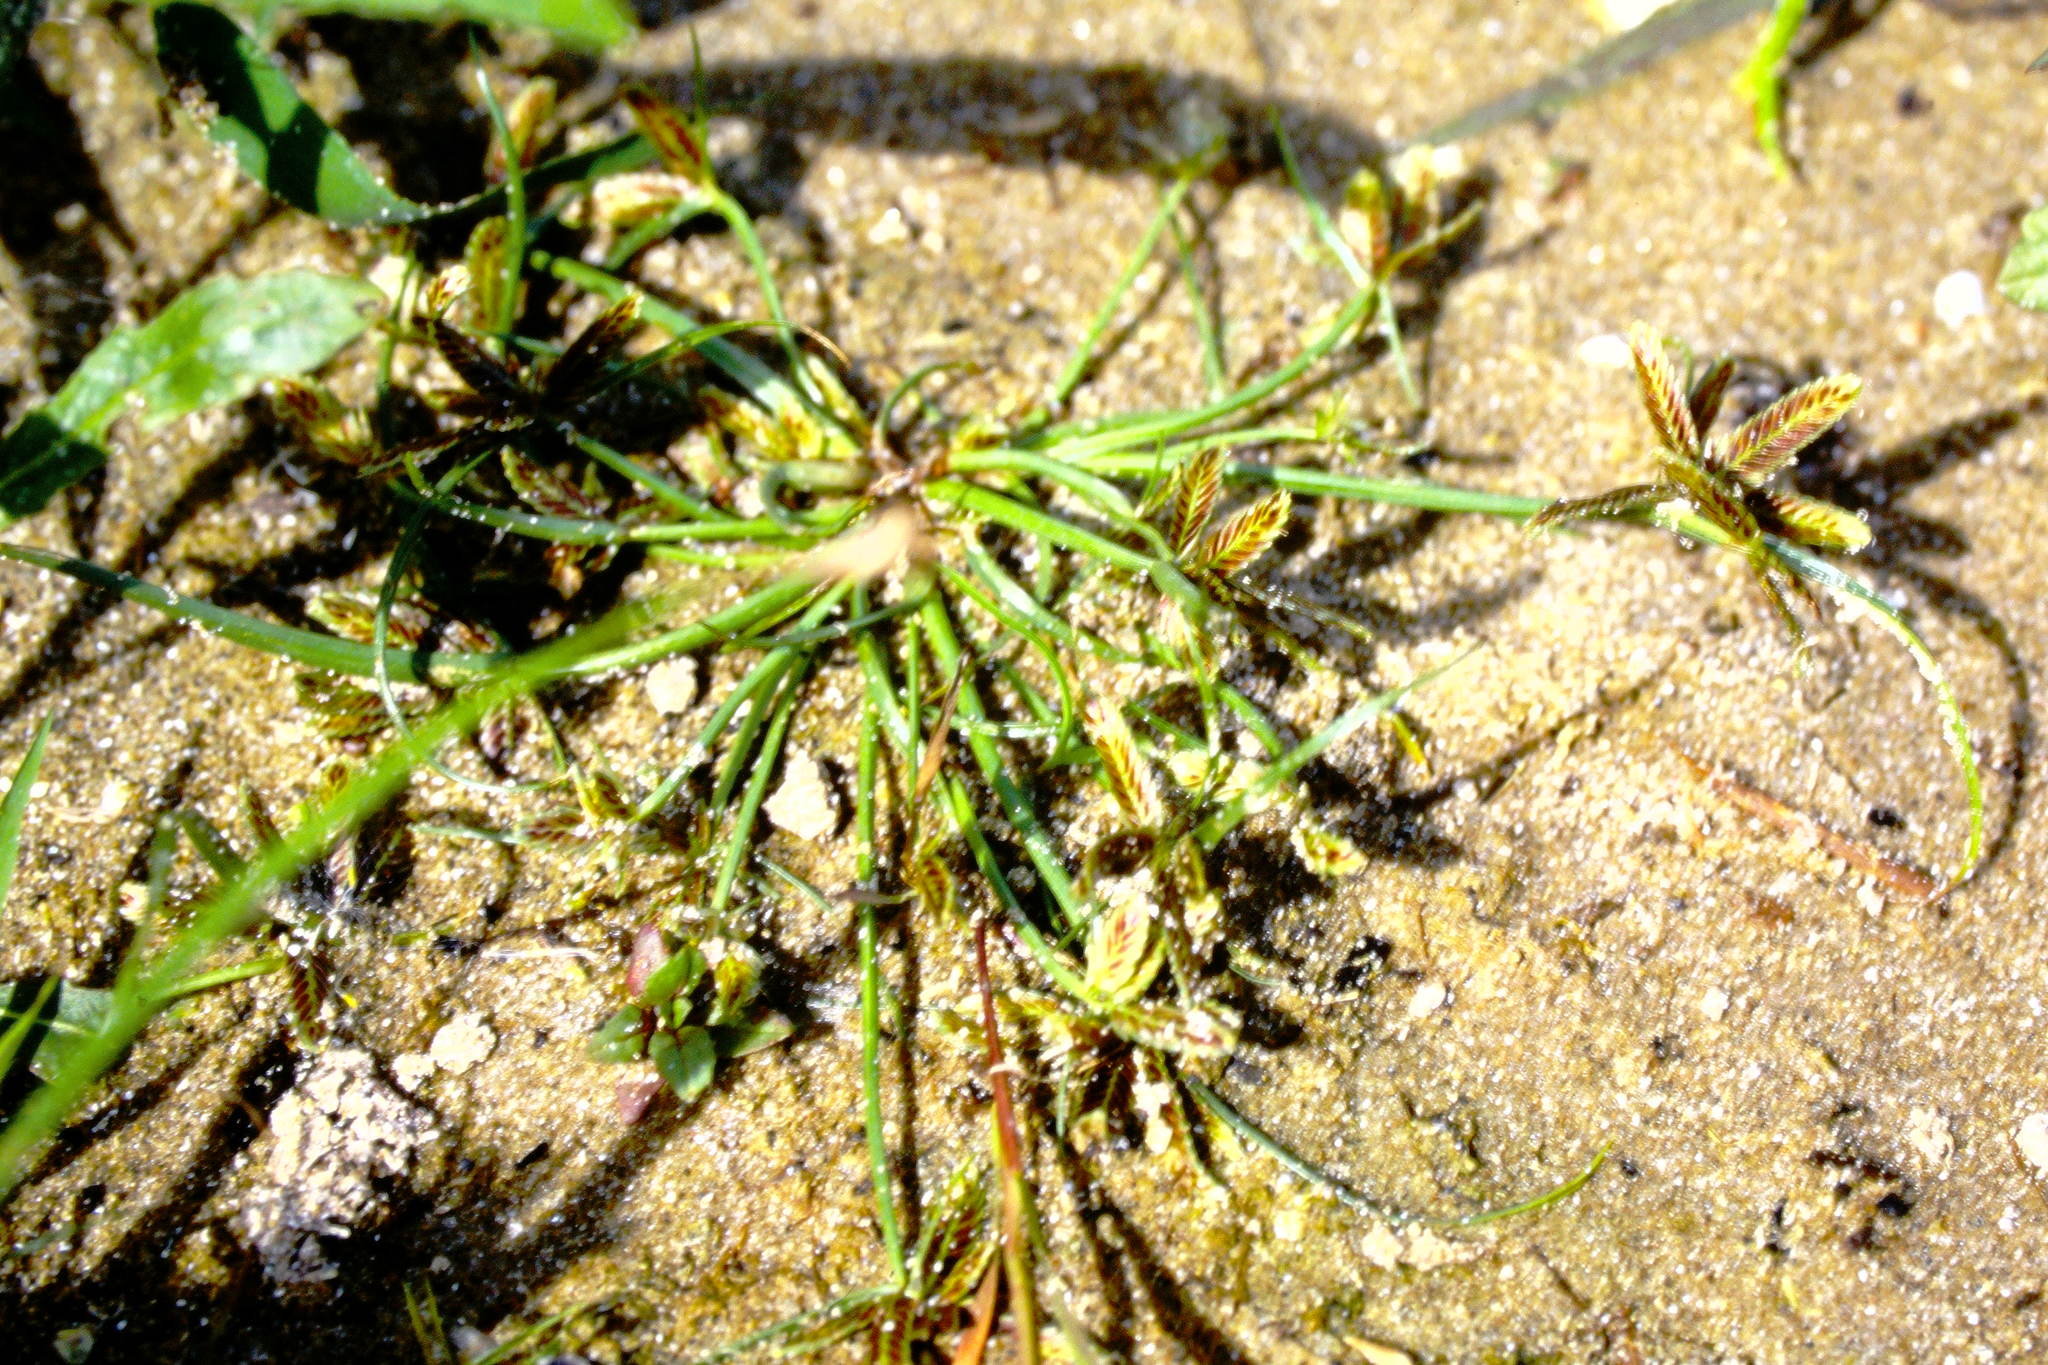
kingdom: Plantae
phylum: Tracheophyta
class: Liliopsida
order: Poales
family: Cyperaceae
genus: Cyperus
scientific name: Cyperus bipartitus
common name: Brook flatsedge
